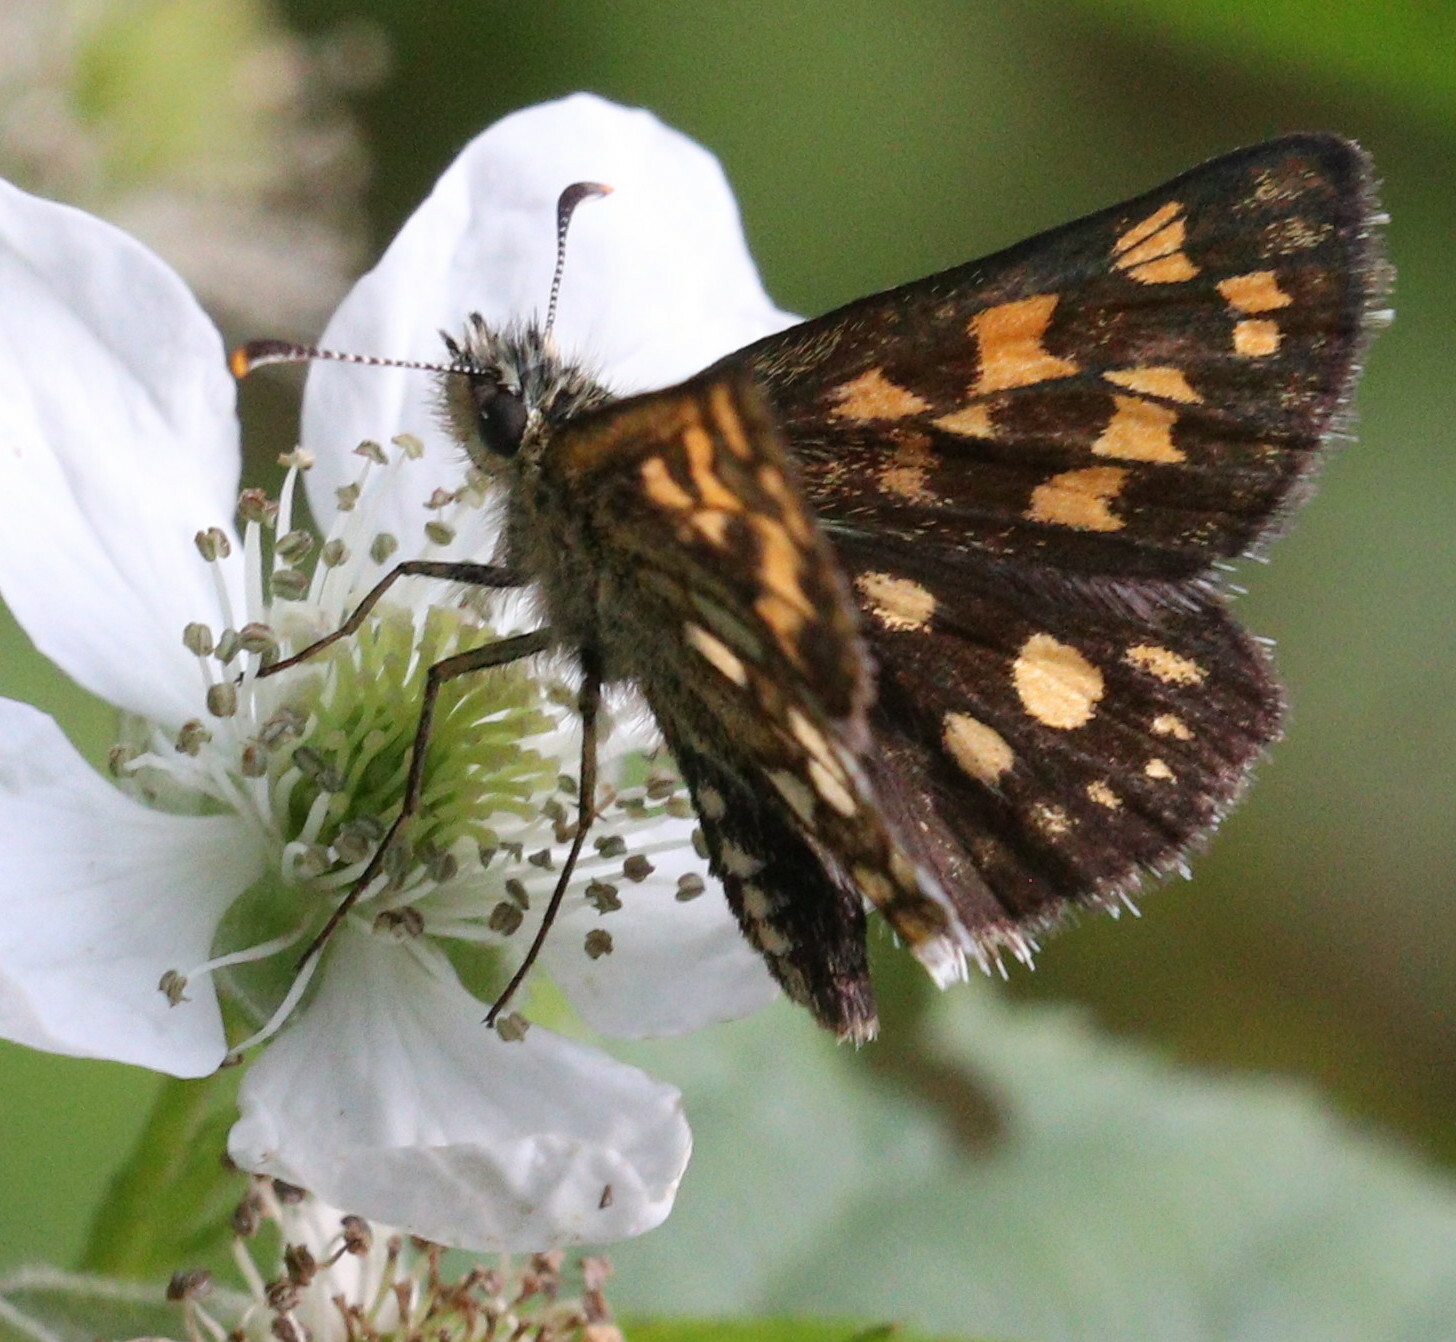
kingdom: Animalia
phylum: Arthropoda
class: Insecta
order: Lepidoptera
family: Hesperiidae
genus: Carterocephalus
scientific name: Carterocephalus palaemon
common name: Chequered skipper
